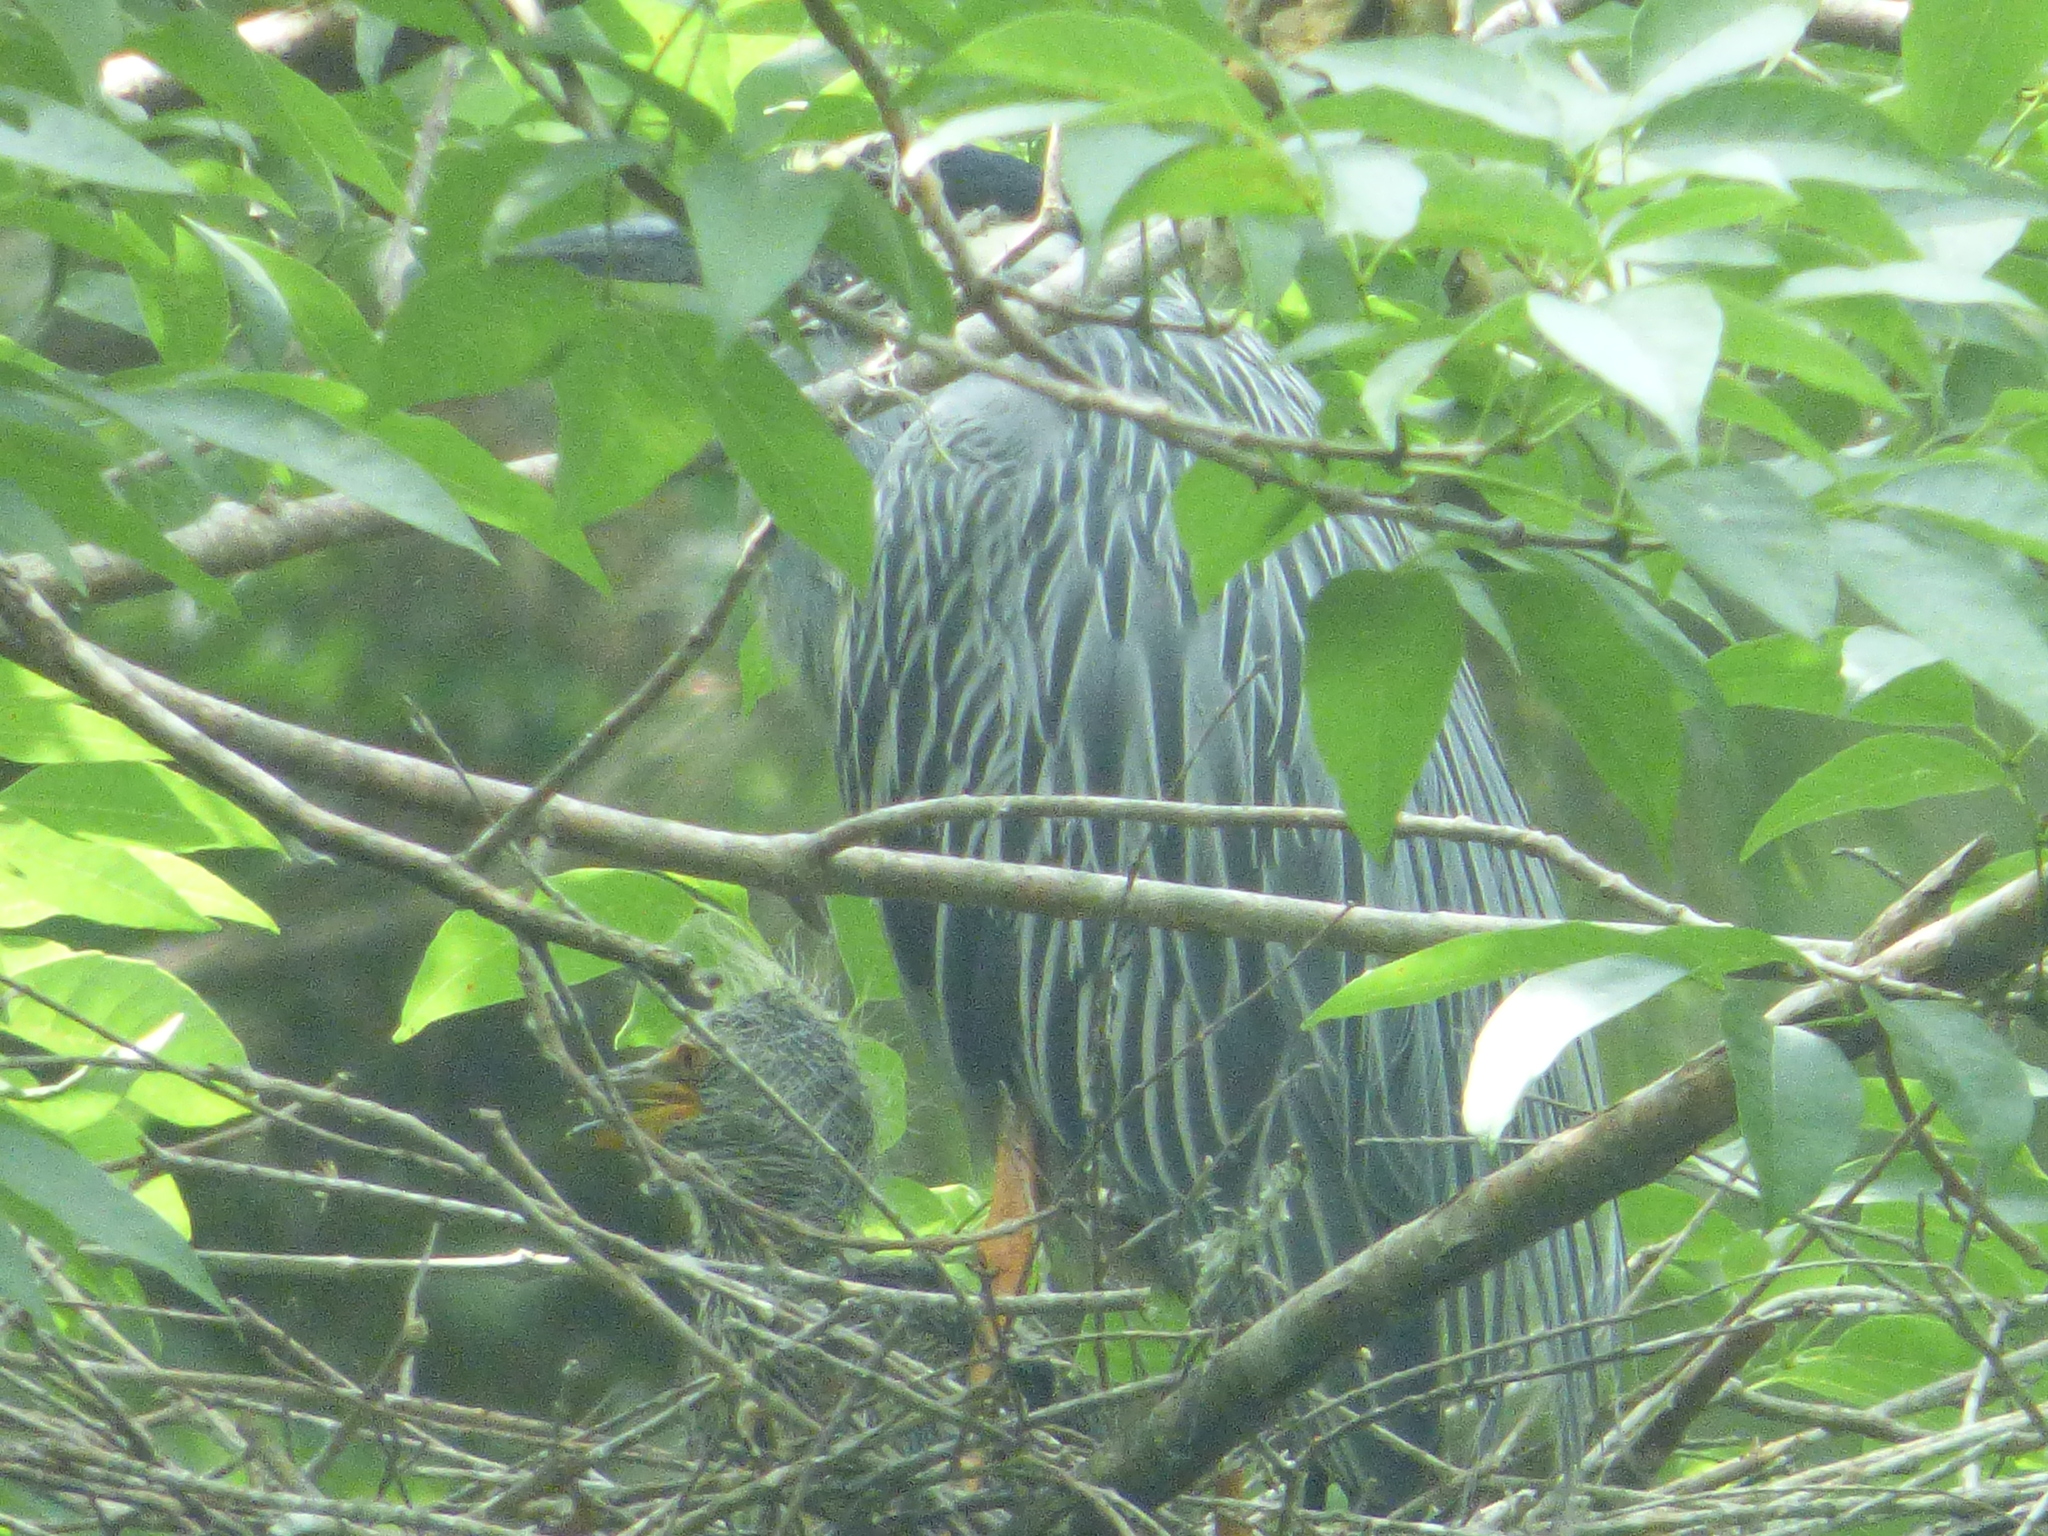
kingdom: Animalia
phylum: Chordata
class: Aves
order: Pelecaniformes
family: Ardeidae
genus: Nyctanassa
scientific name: Nyctanassa violacea
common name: Yellow-crowned night heron
